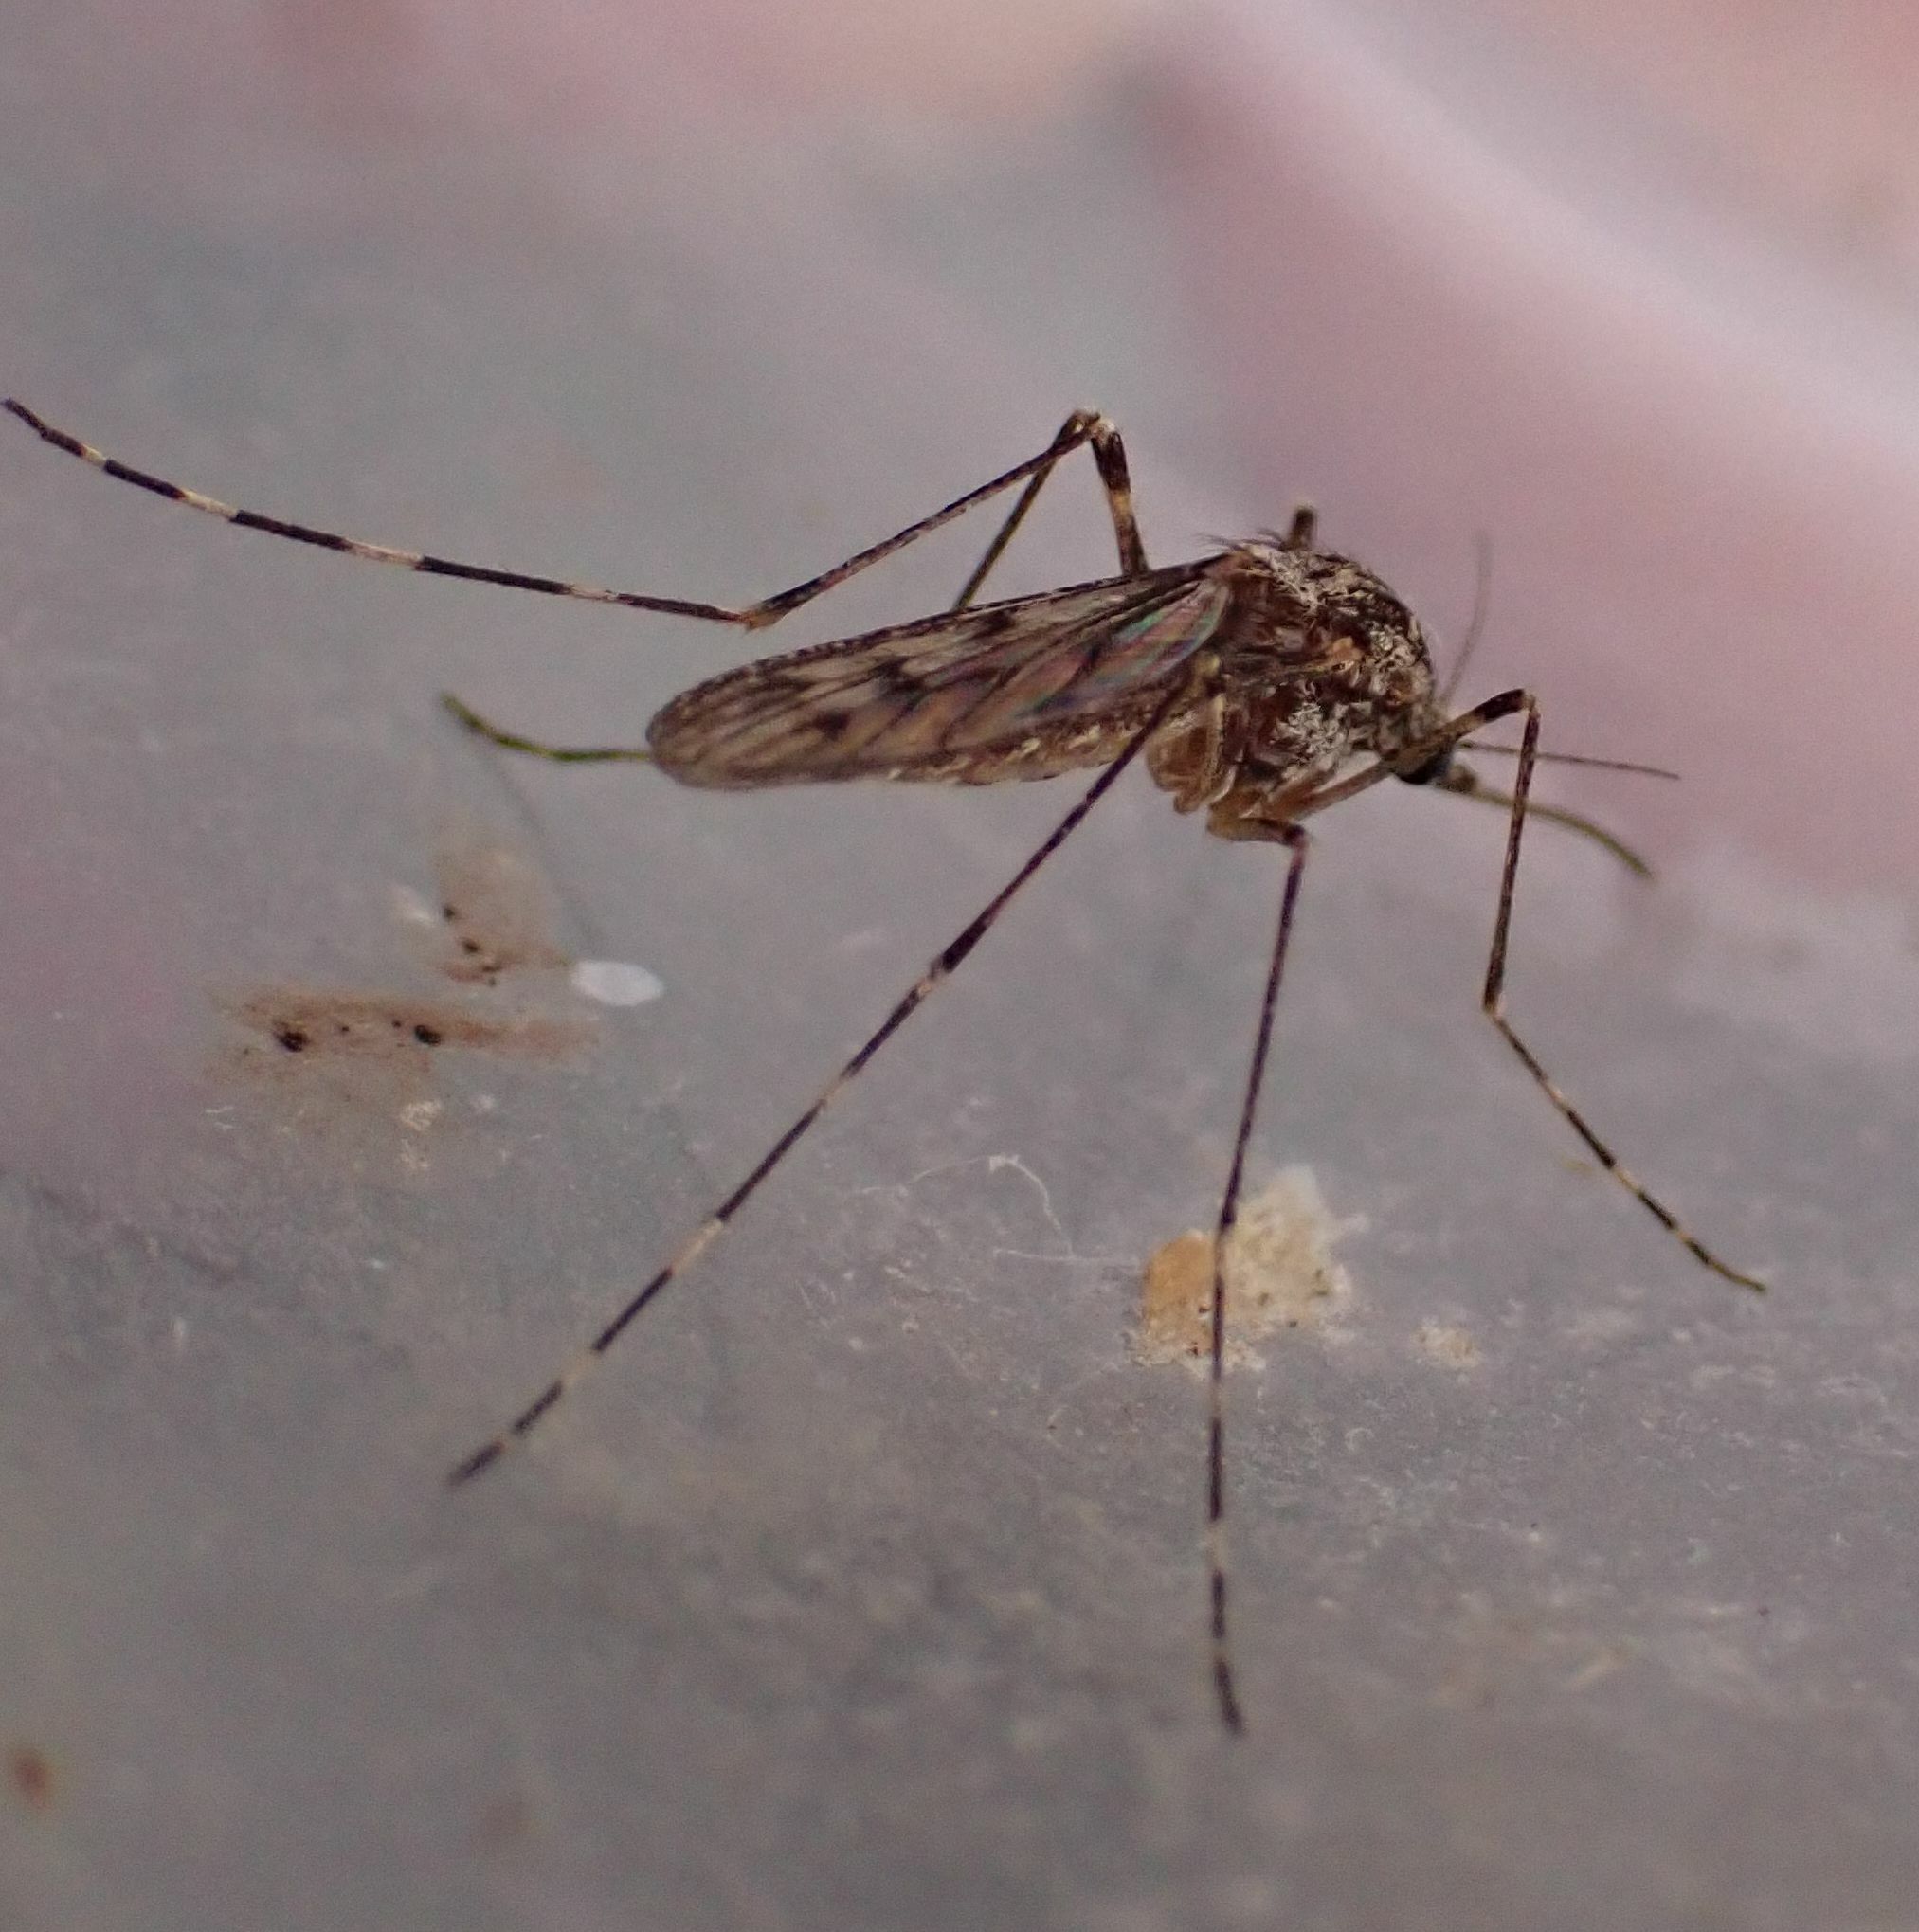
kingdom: Animalia
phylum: Arthropoda
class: Insecta
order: Diptera
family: Culicidae
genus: Culiseta
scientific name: Culiseta annulata
